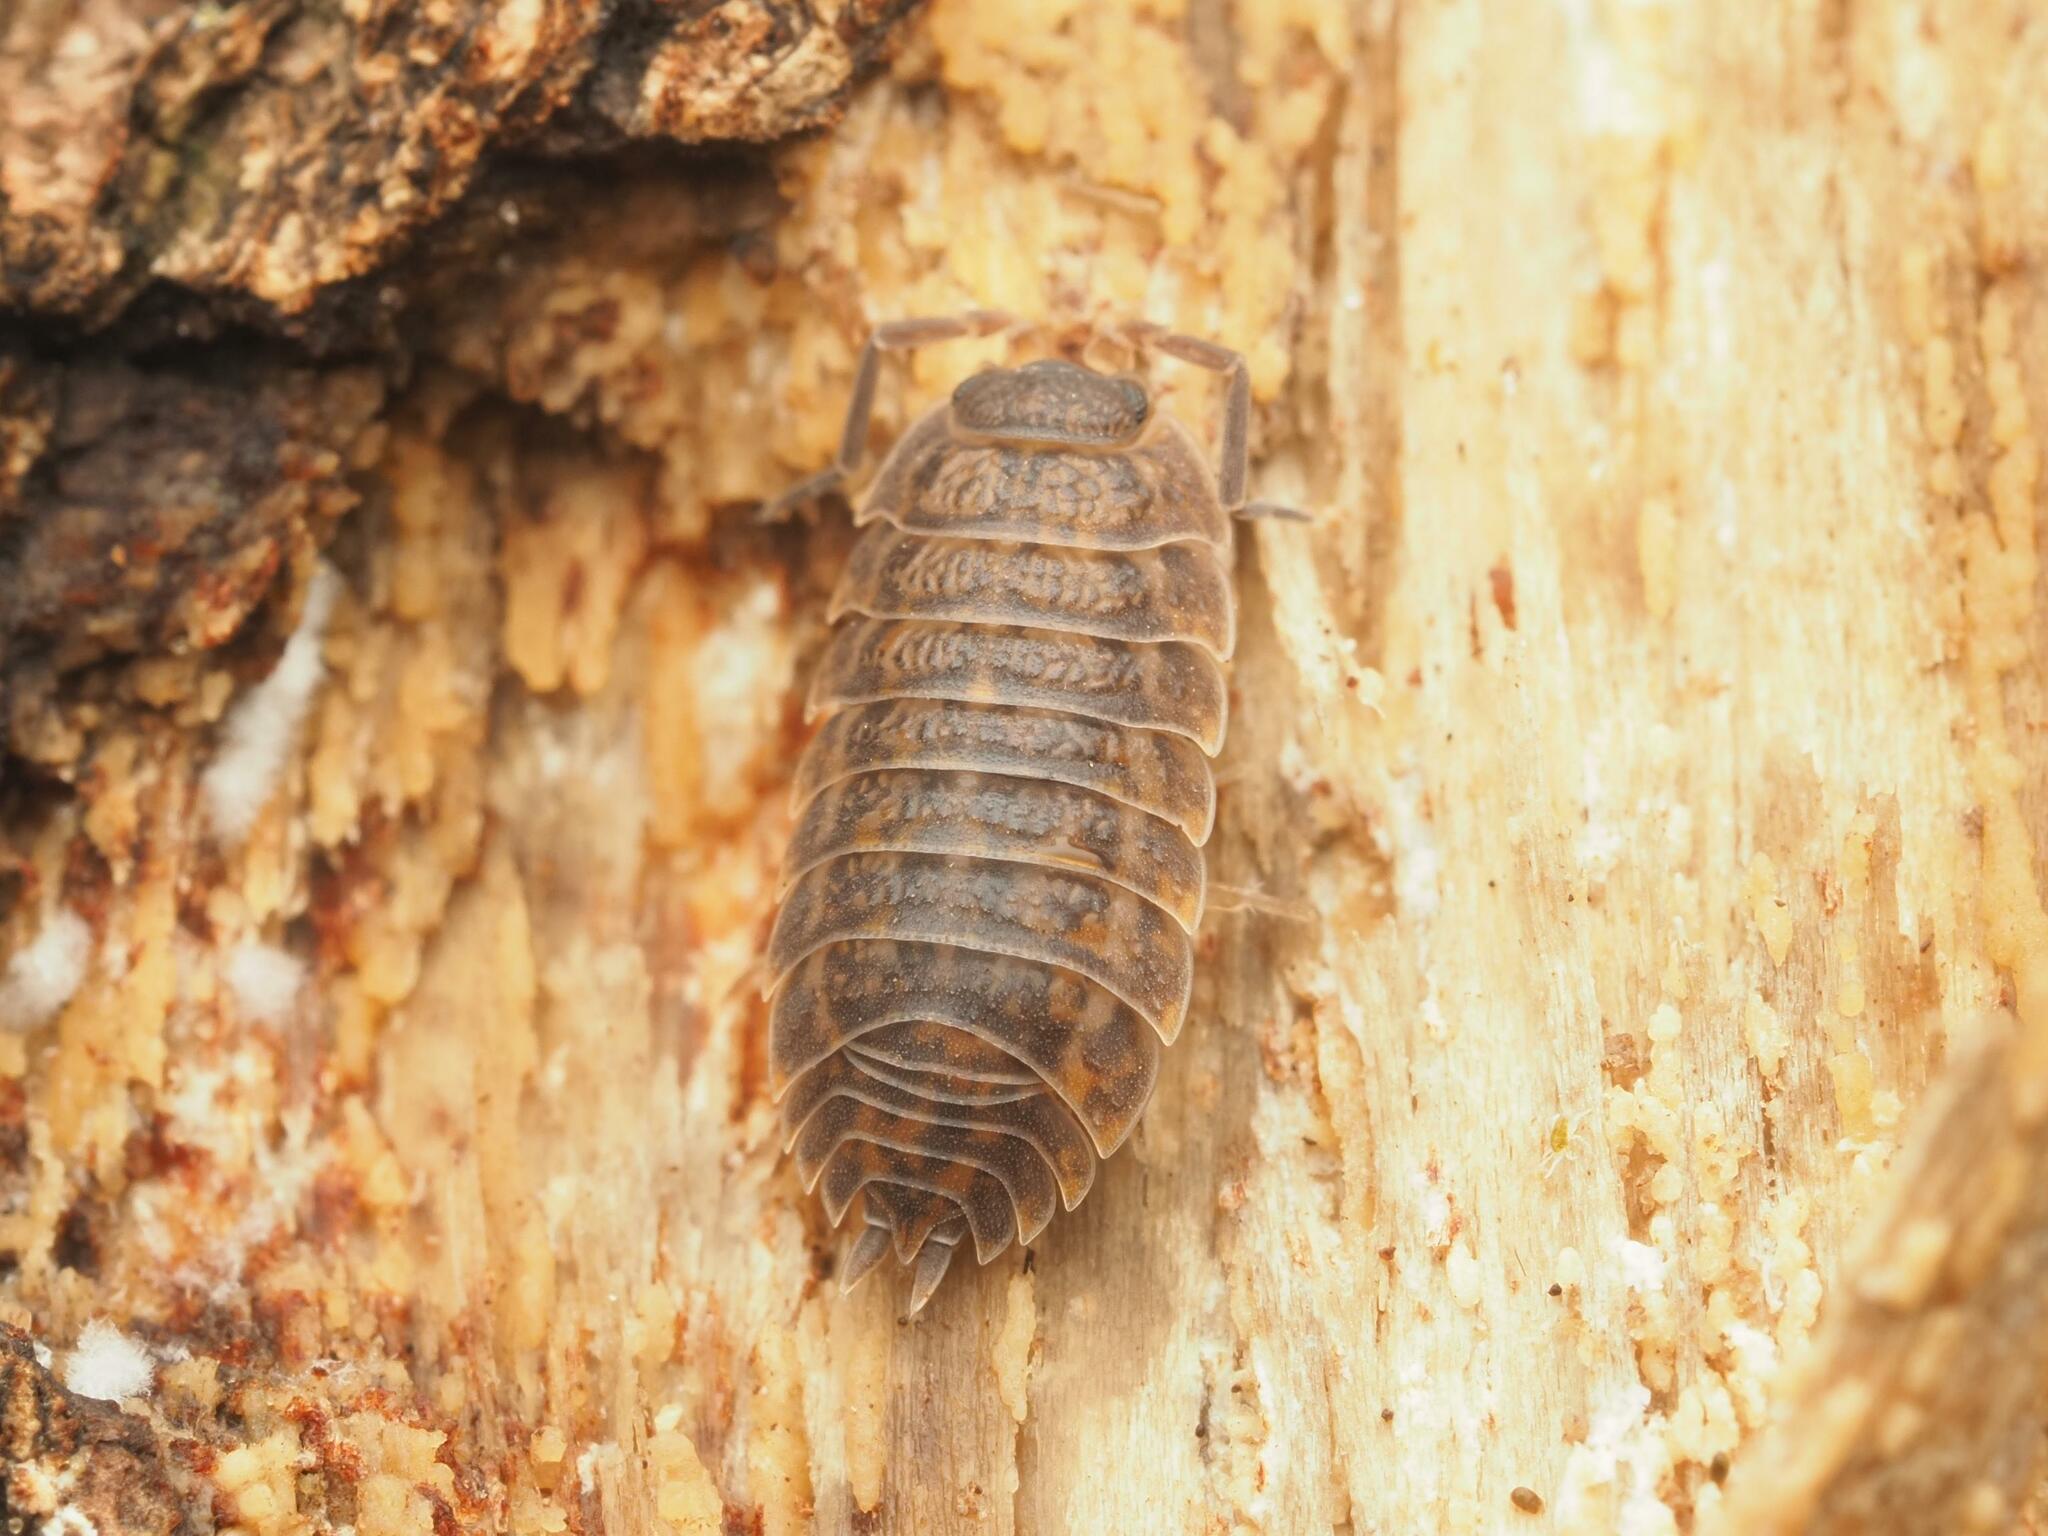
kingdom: Animalia
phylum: Arthropoda
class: Malacostraca
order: Isopoda
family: Trachelipodidae
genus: Trachelipus
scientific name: Trachelipus rathkii
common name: Isopod
